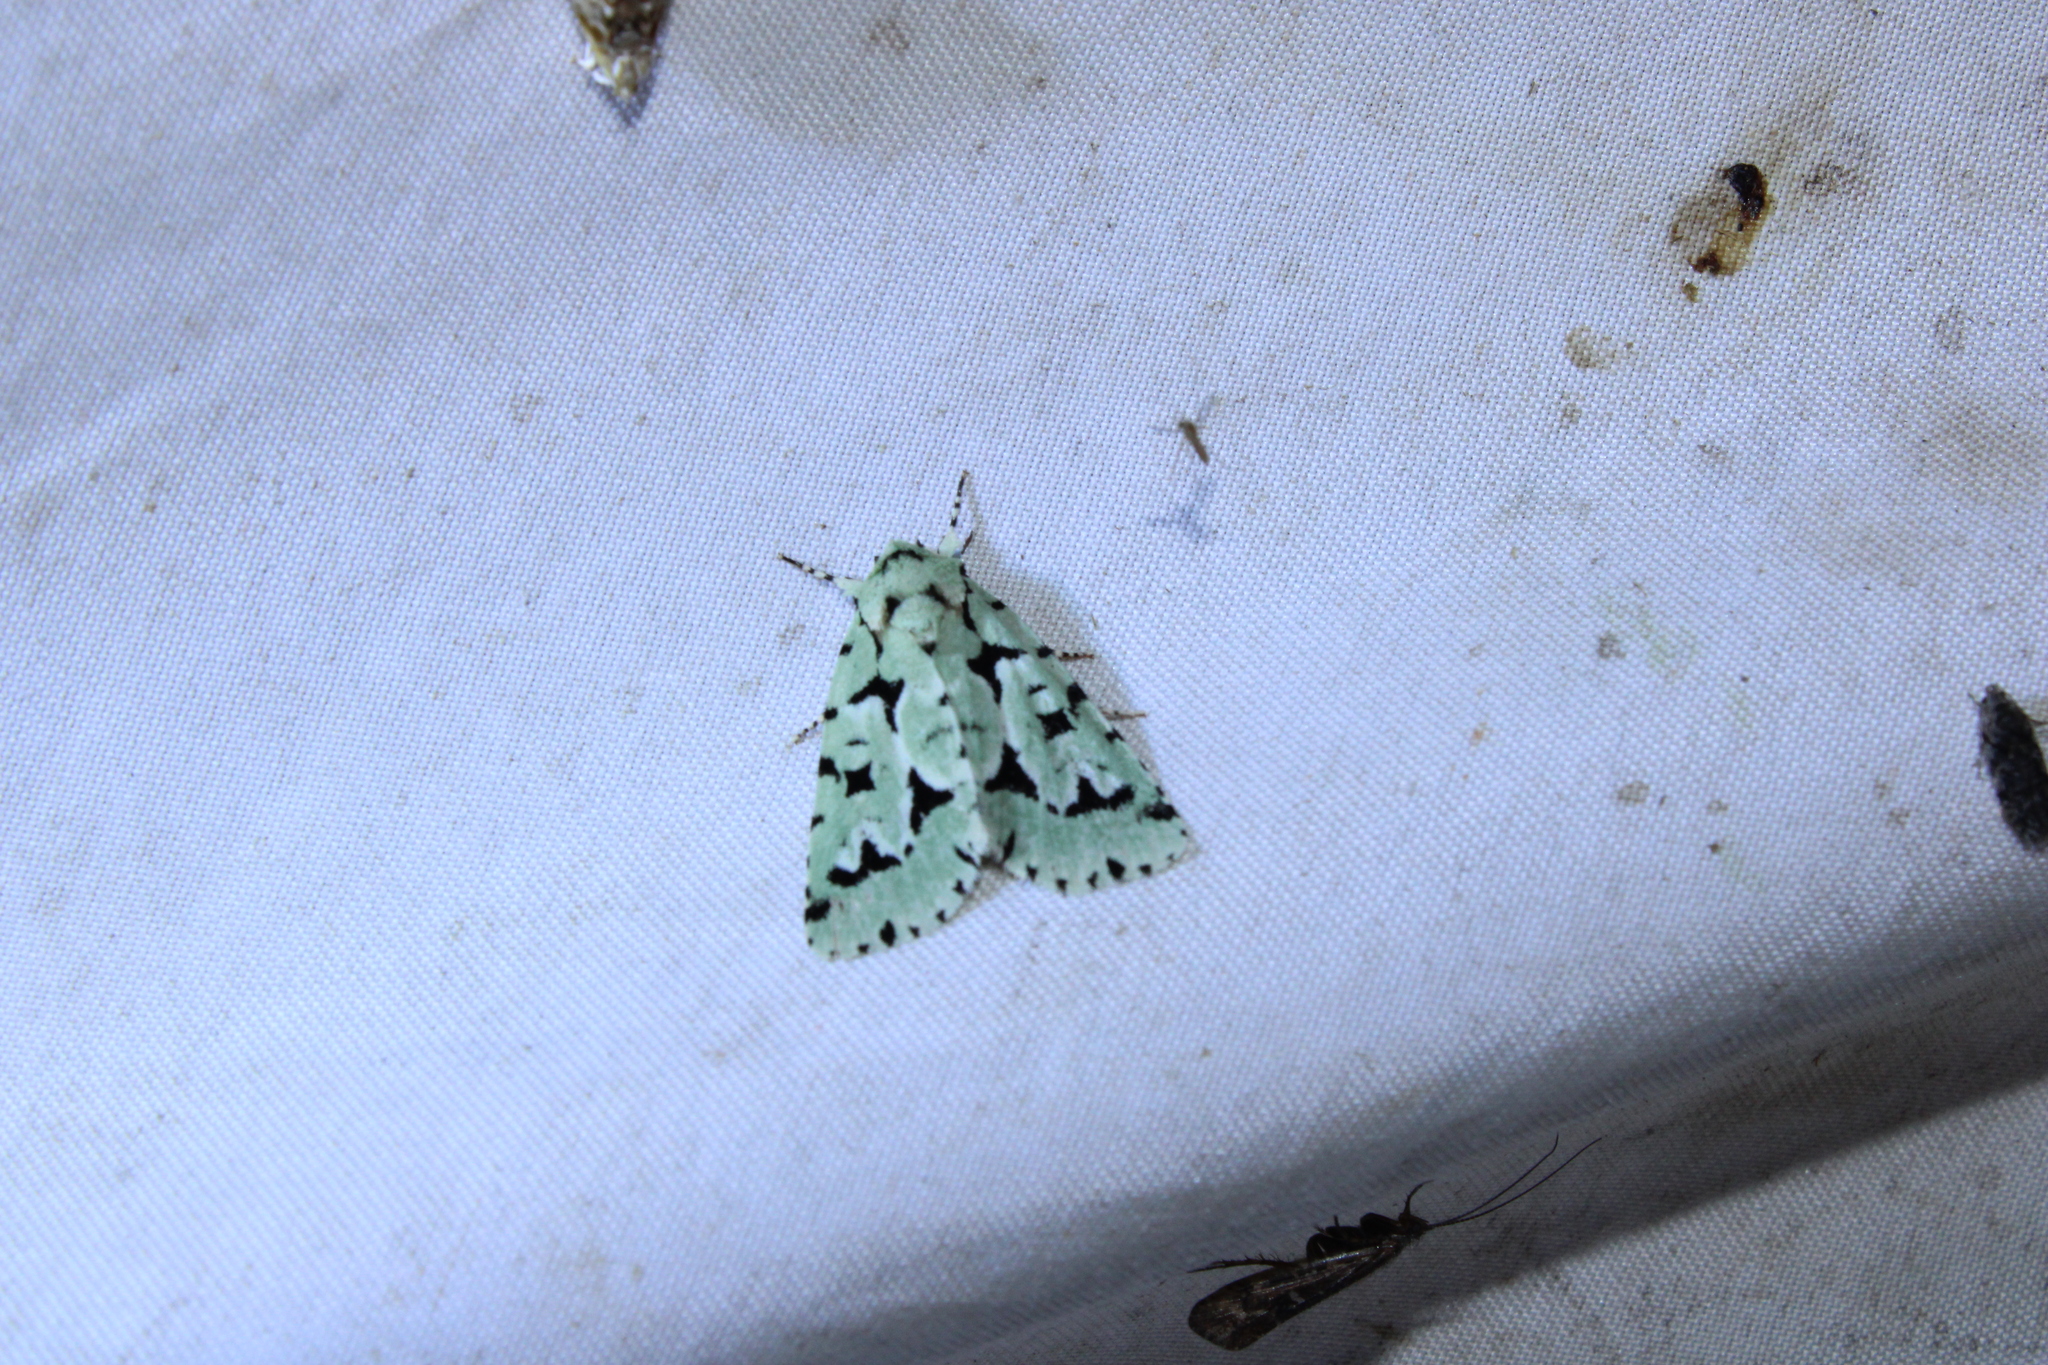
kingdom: Animalia
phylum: Arthropoda
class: Insecta
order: Lepidoptera
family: Noctuidae
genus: Acronicta
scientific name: Acronicta fallax
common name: Green marvel
